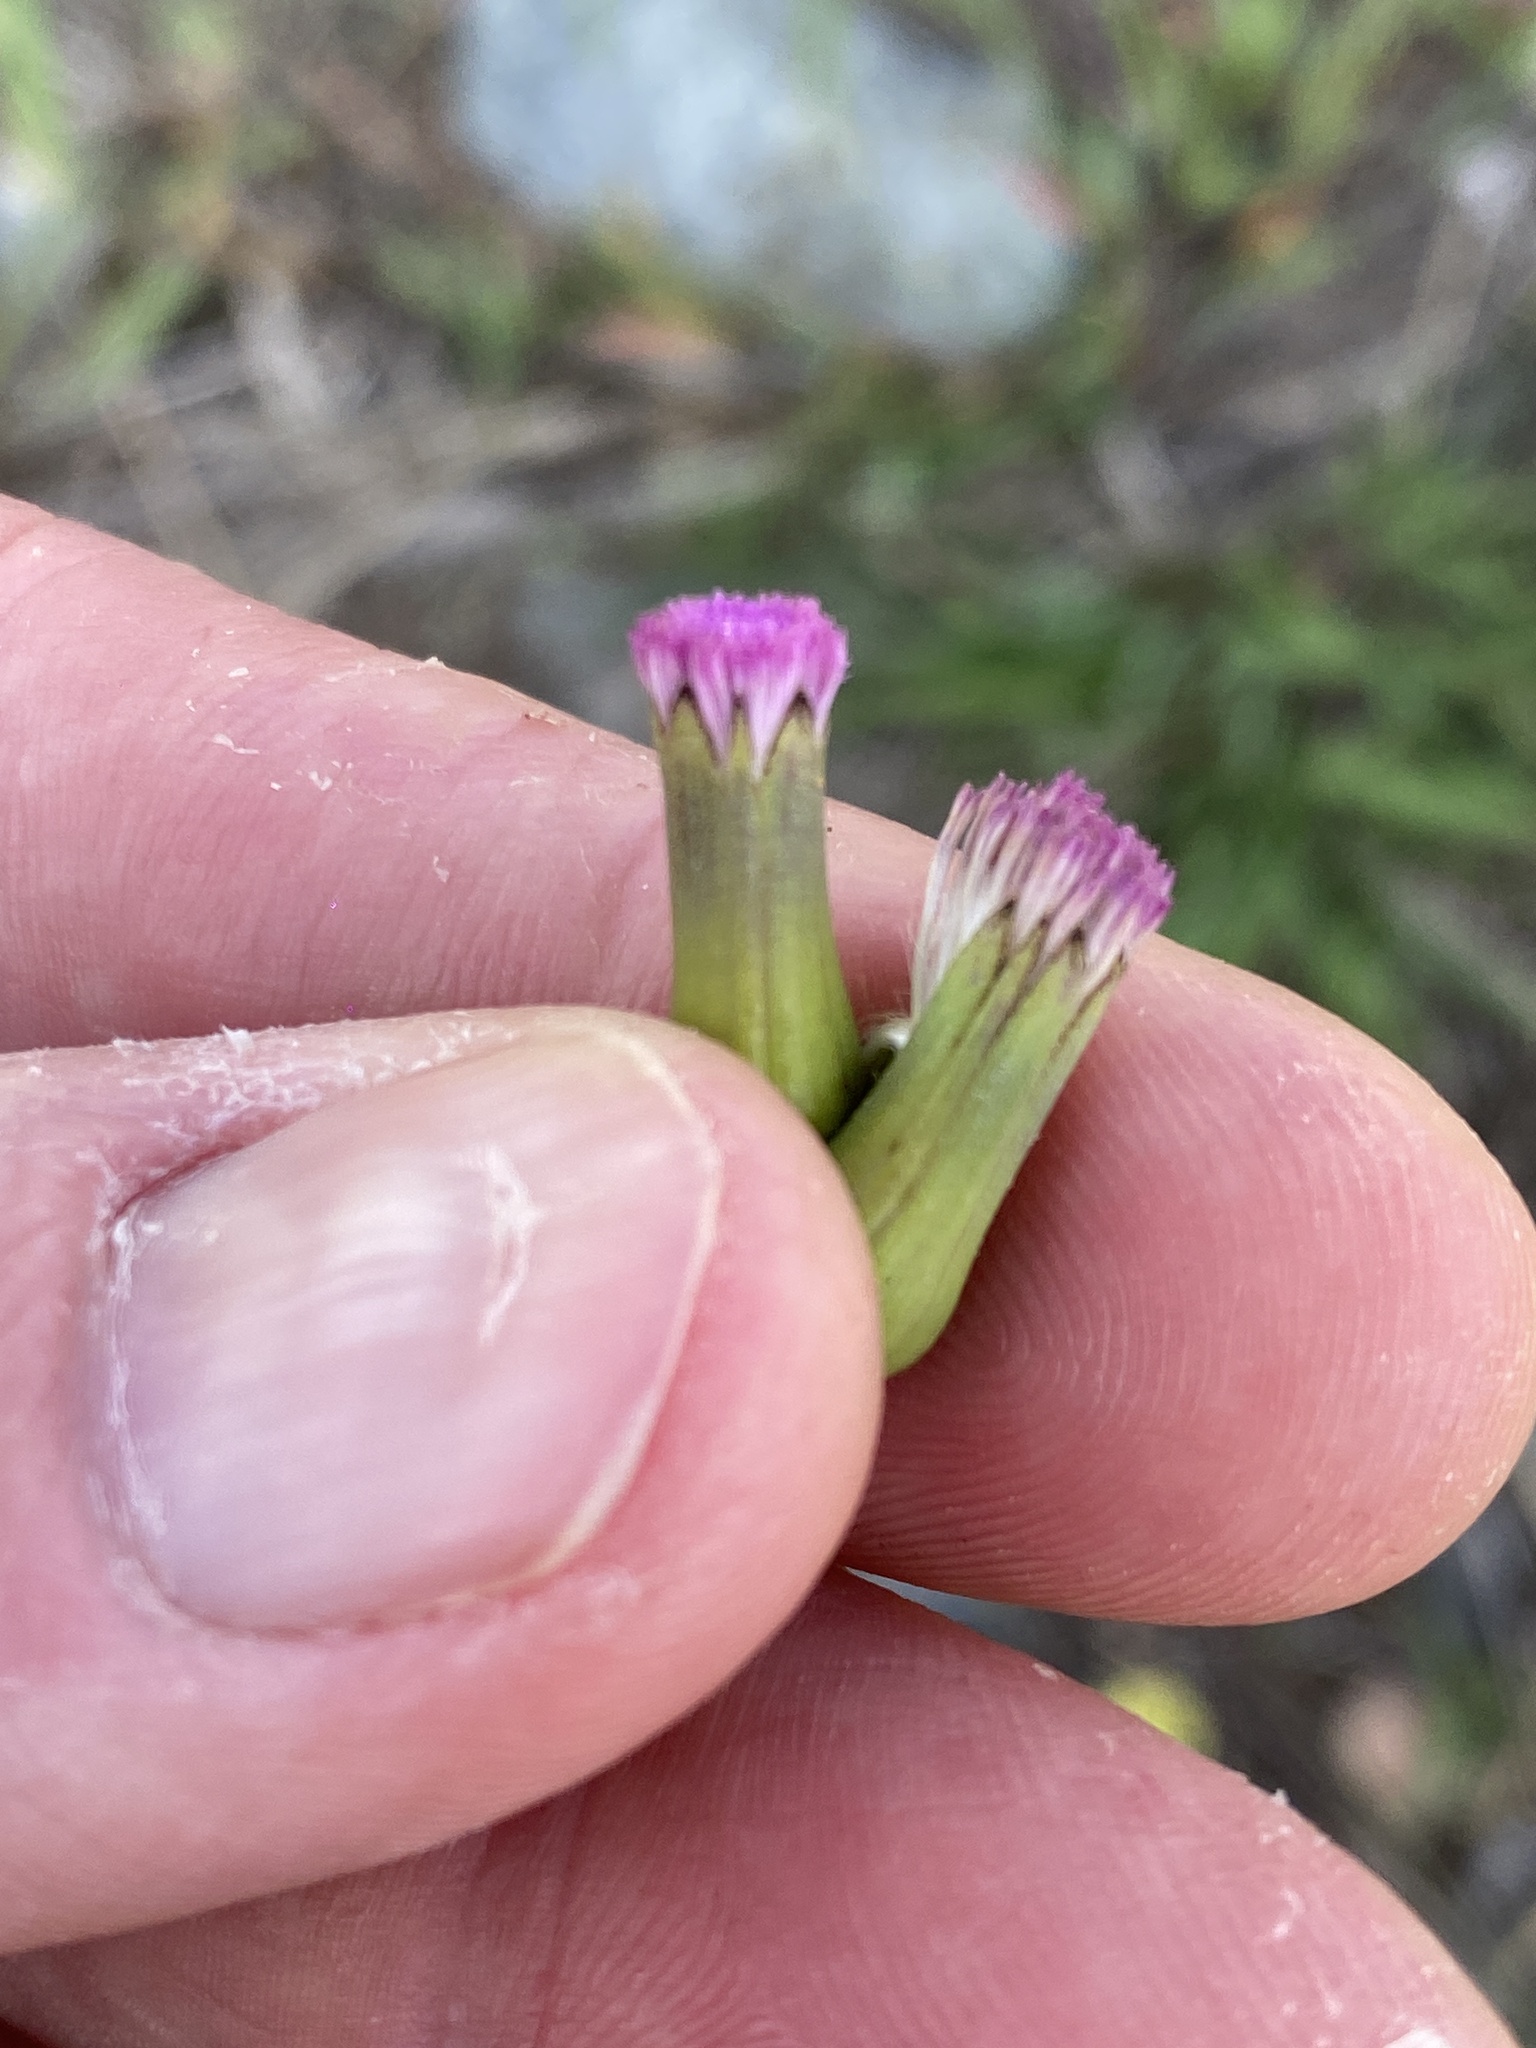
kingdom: Plantae
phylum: Tracheophyta
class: Magnoliopsida
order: Asterales
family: Asteraceae
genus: Emilia
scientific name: Emilia javanica
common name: Tassel-flower
